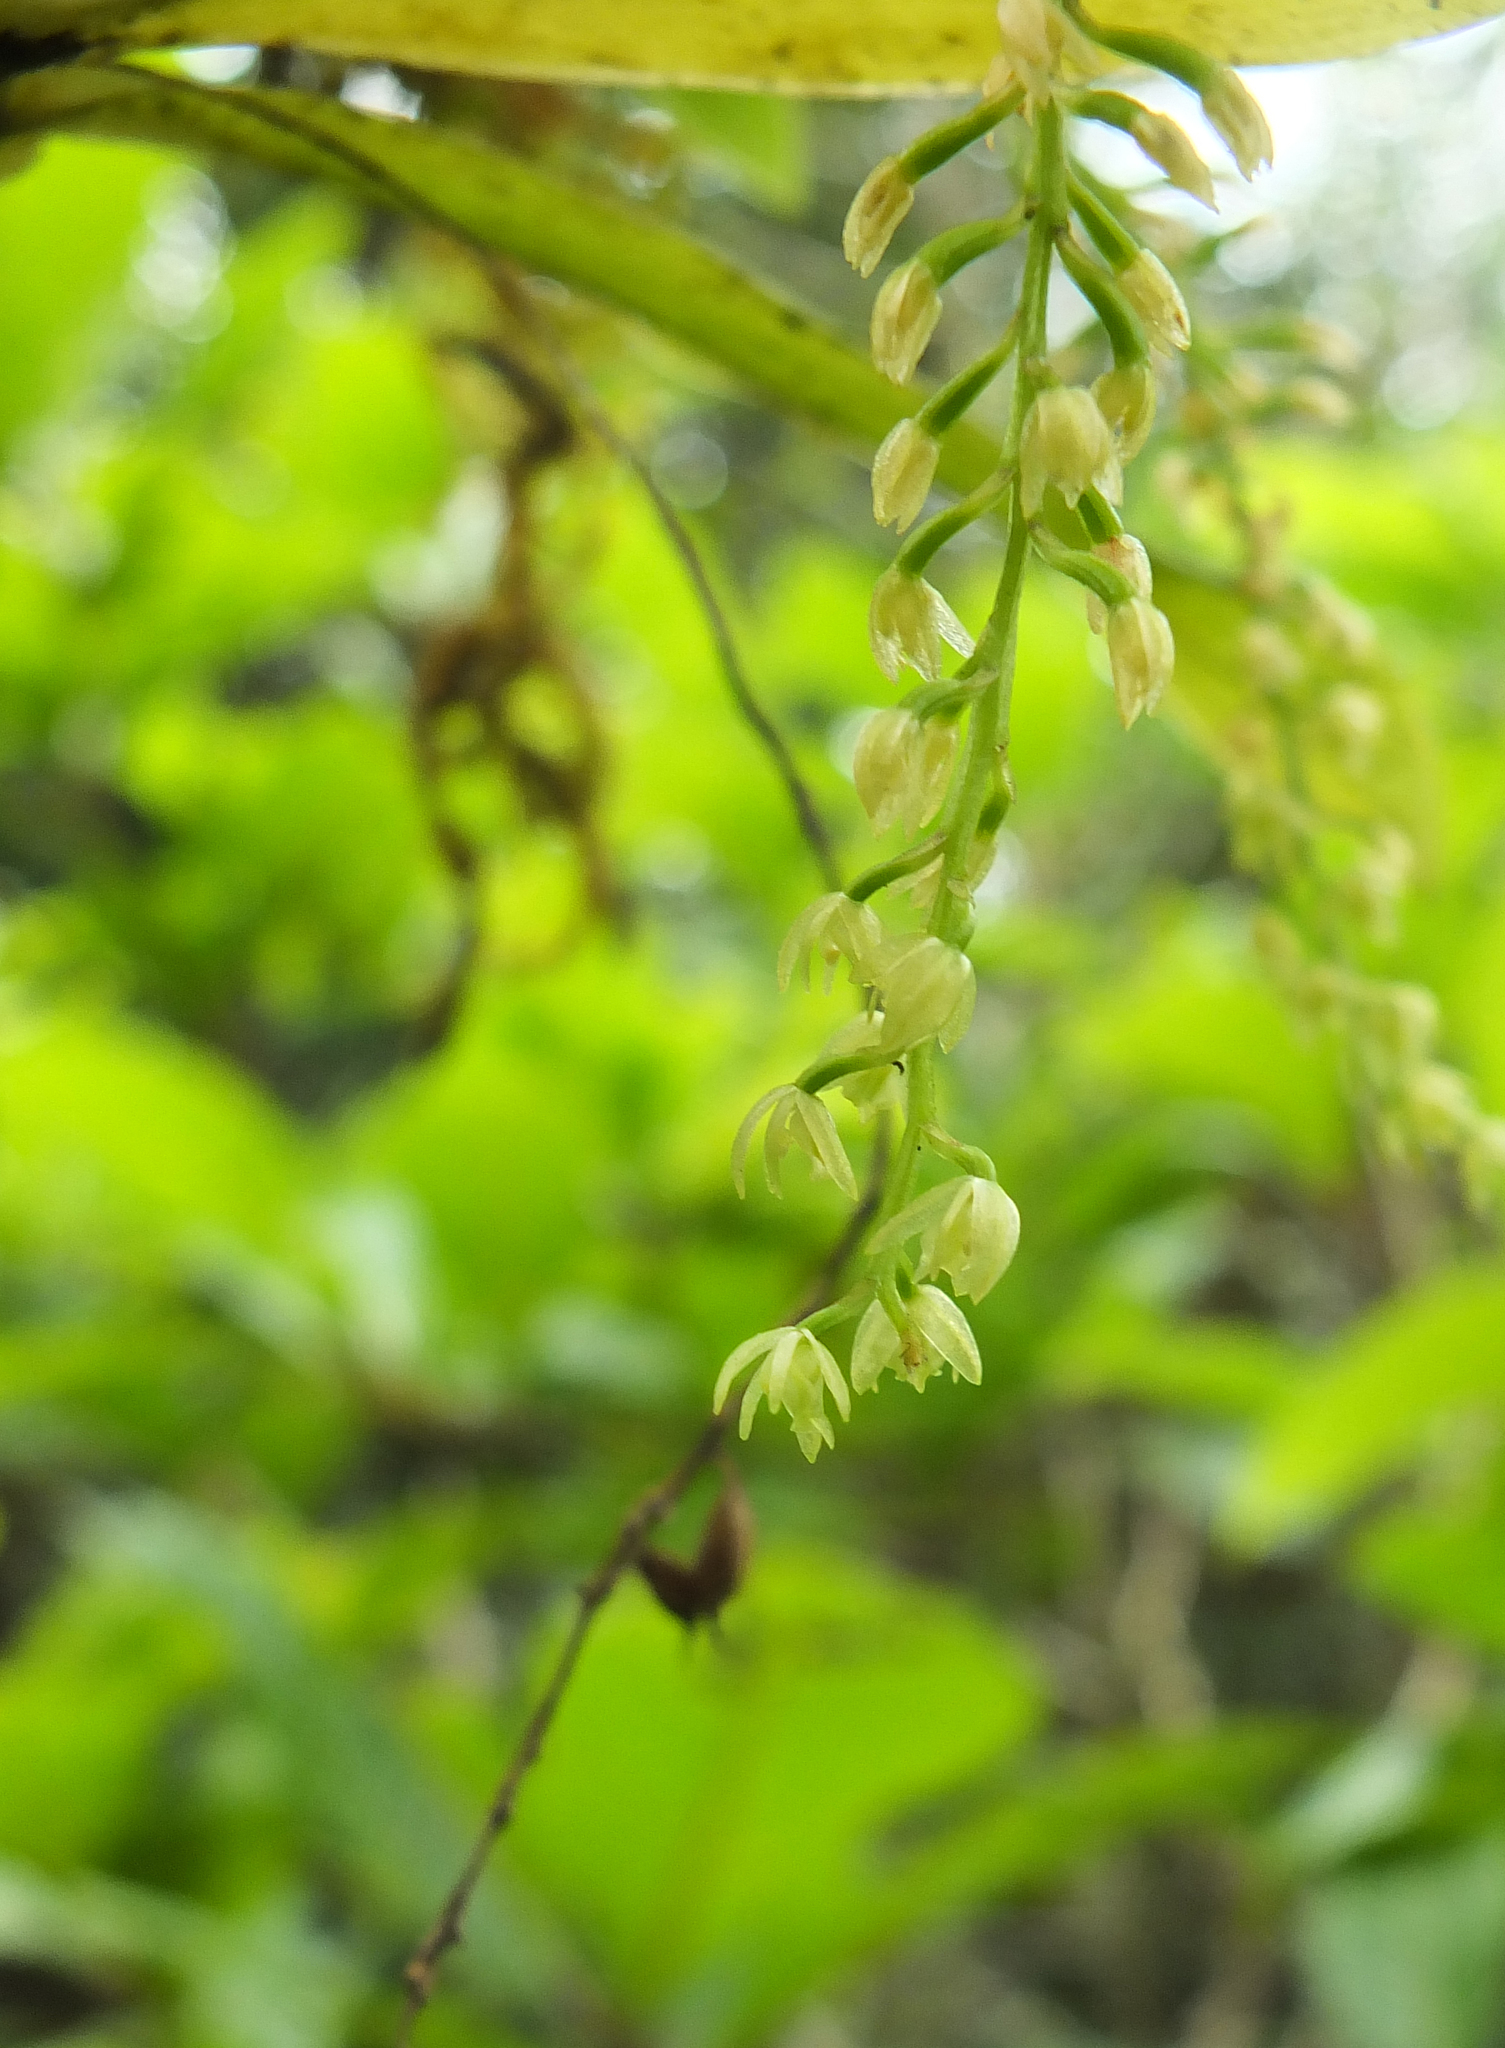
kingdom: Plantae
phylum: Tracheophyta
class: Liliopsida
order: Asparagales
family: Orchidaceae
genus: Liparis
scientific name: Liparis elliptica
